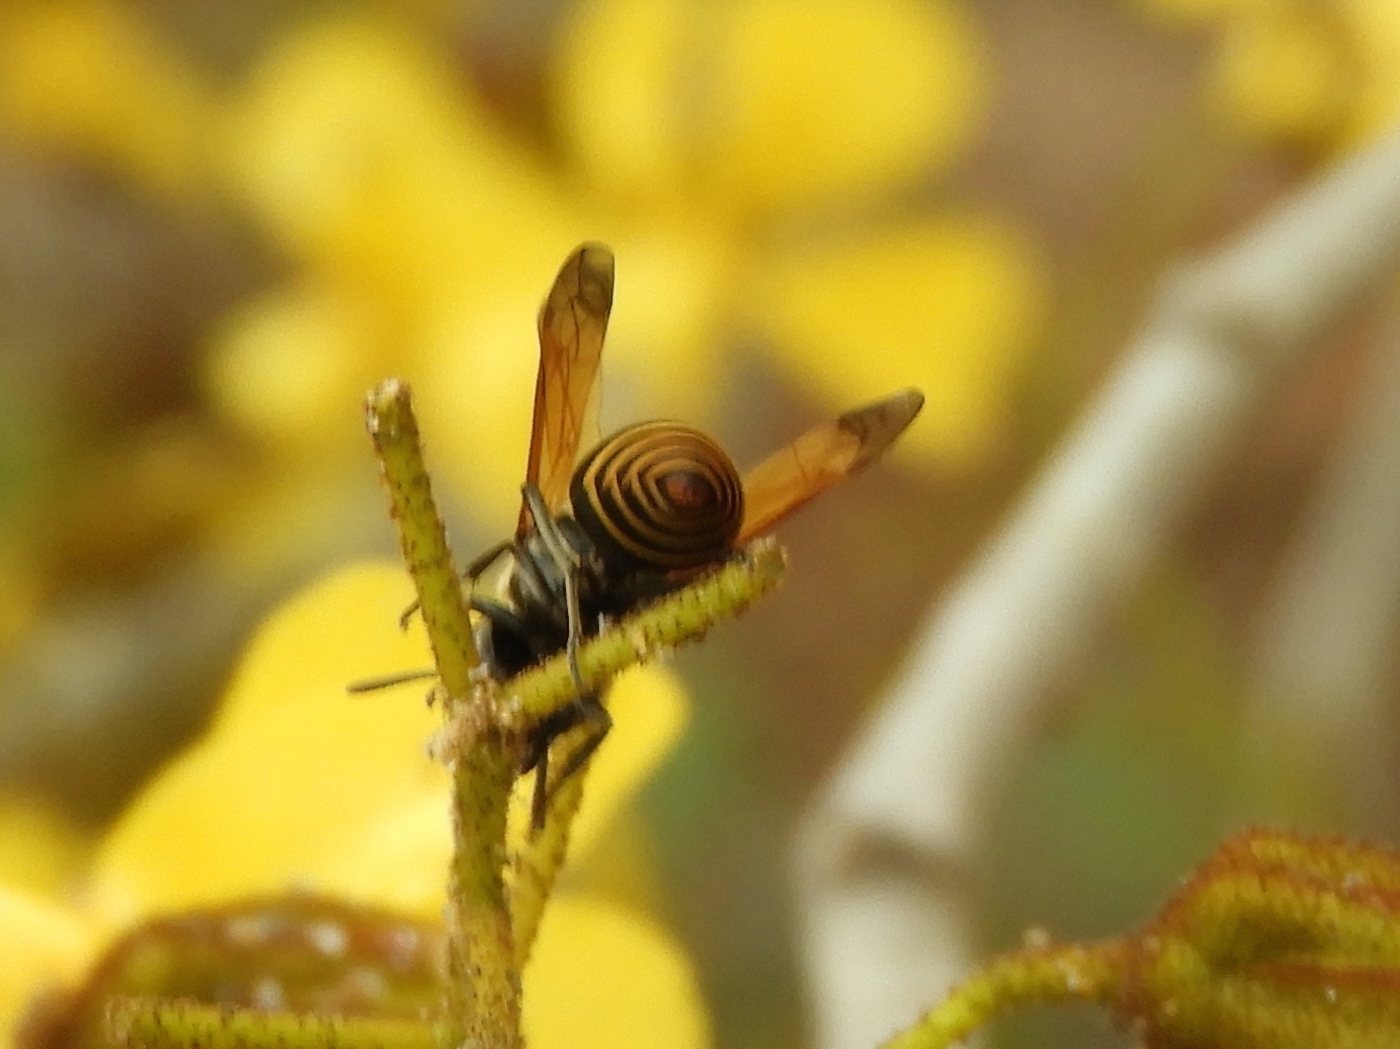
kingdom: Animalia
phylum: Arthropoda
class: Insecta
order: Hymenoptera
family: Vespidae
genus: Brachygastra
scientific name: Brachygastra mellifica
